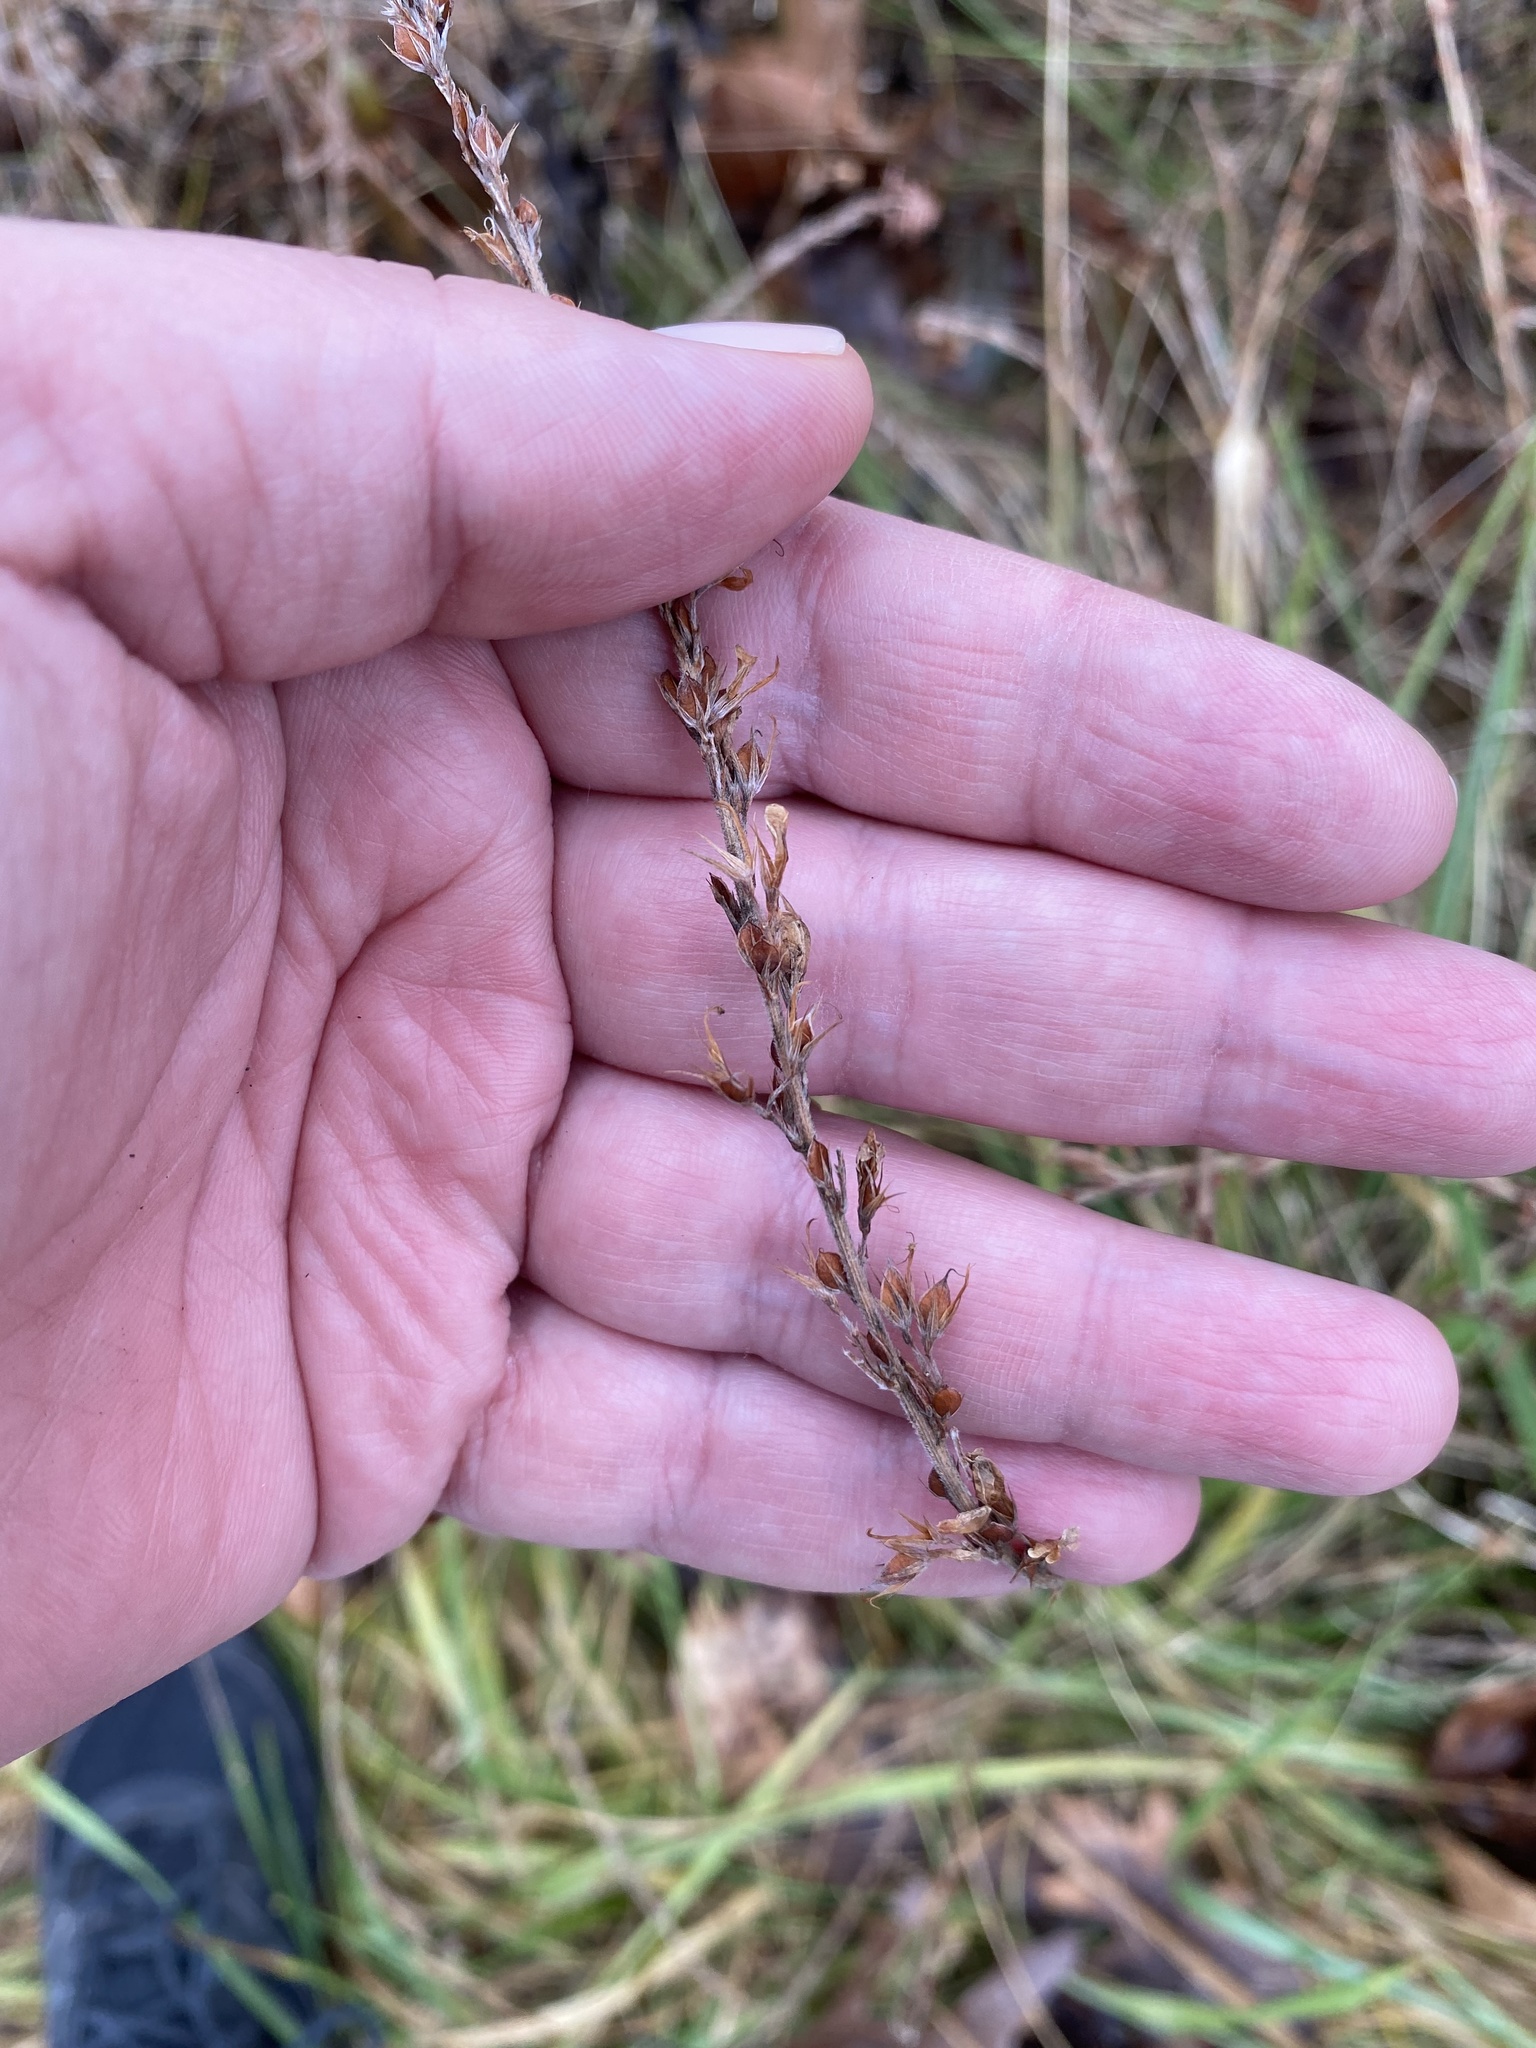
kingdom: Plantae
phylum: Tracheophyta
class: Magnoliopsida
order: Fabales
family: Fabaceae
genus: Lespedeza
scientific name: Lespedeza cuneata
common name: Chinese bush-clover
